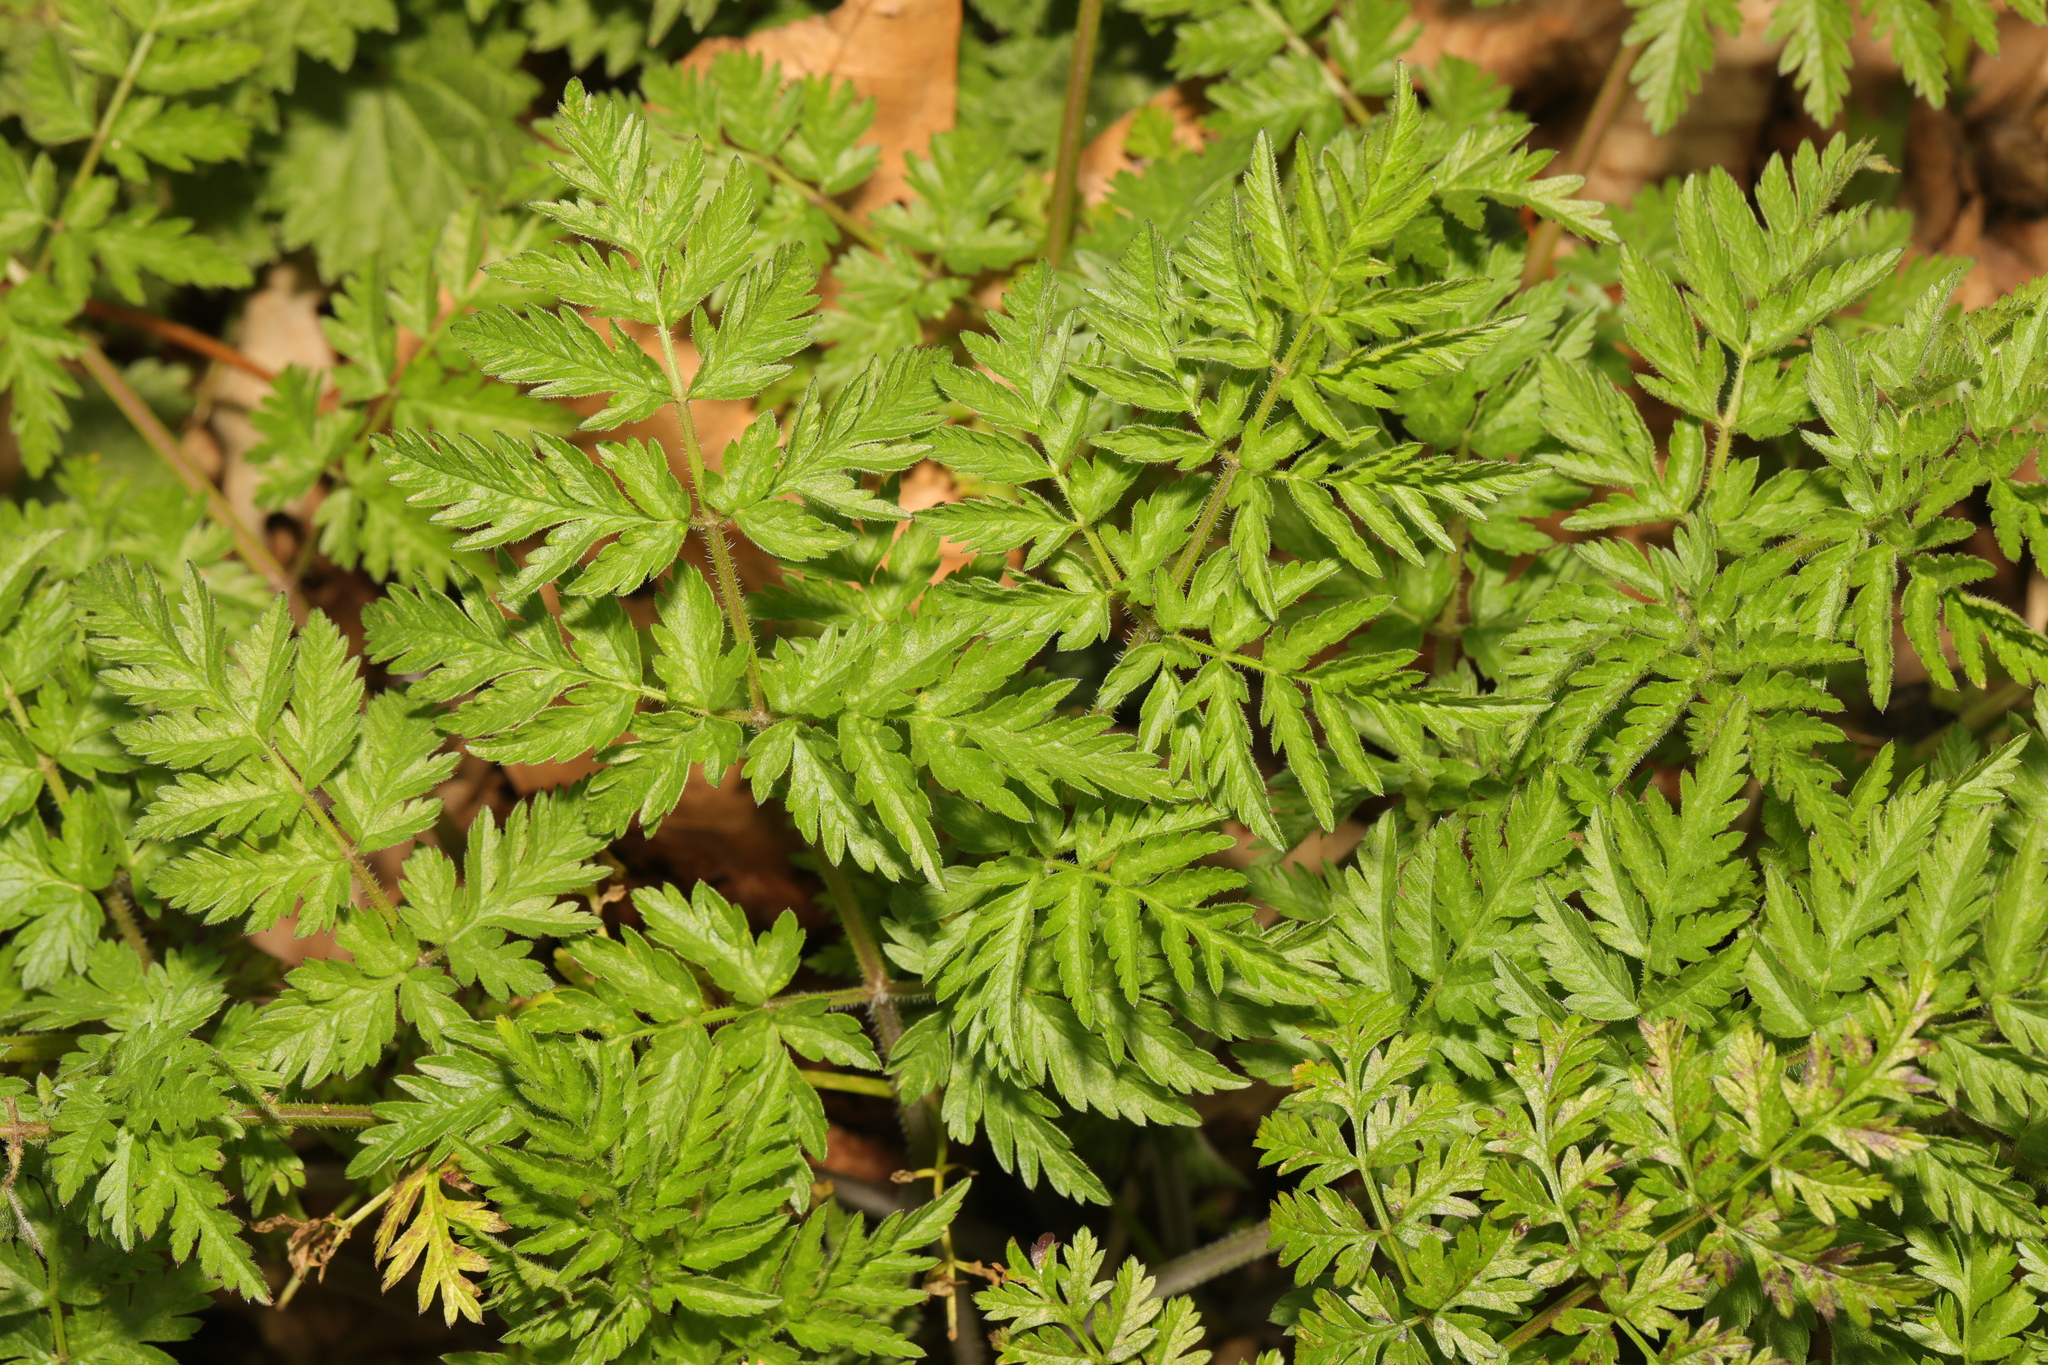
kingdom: Plantae
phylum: Tracheophyta
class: Magnoliopsida
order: Apiales
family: Apiaceae
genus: Anthriscus
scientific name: Anthriscus sylvestris
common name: Cow parsley
